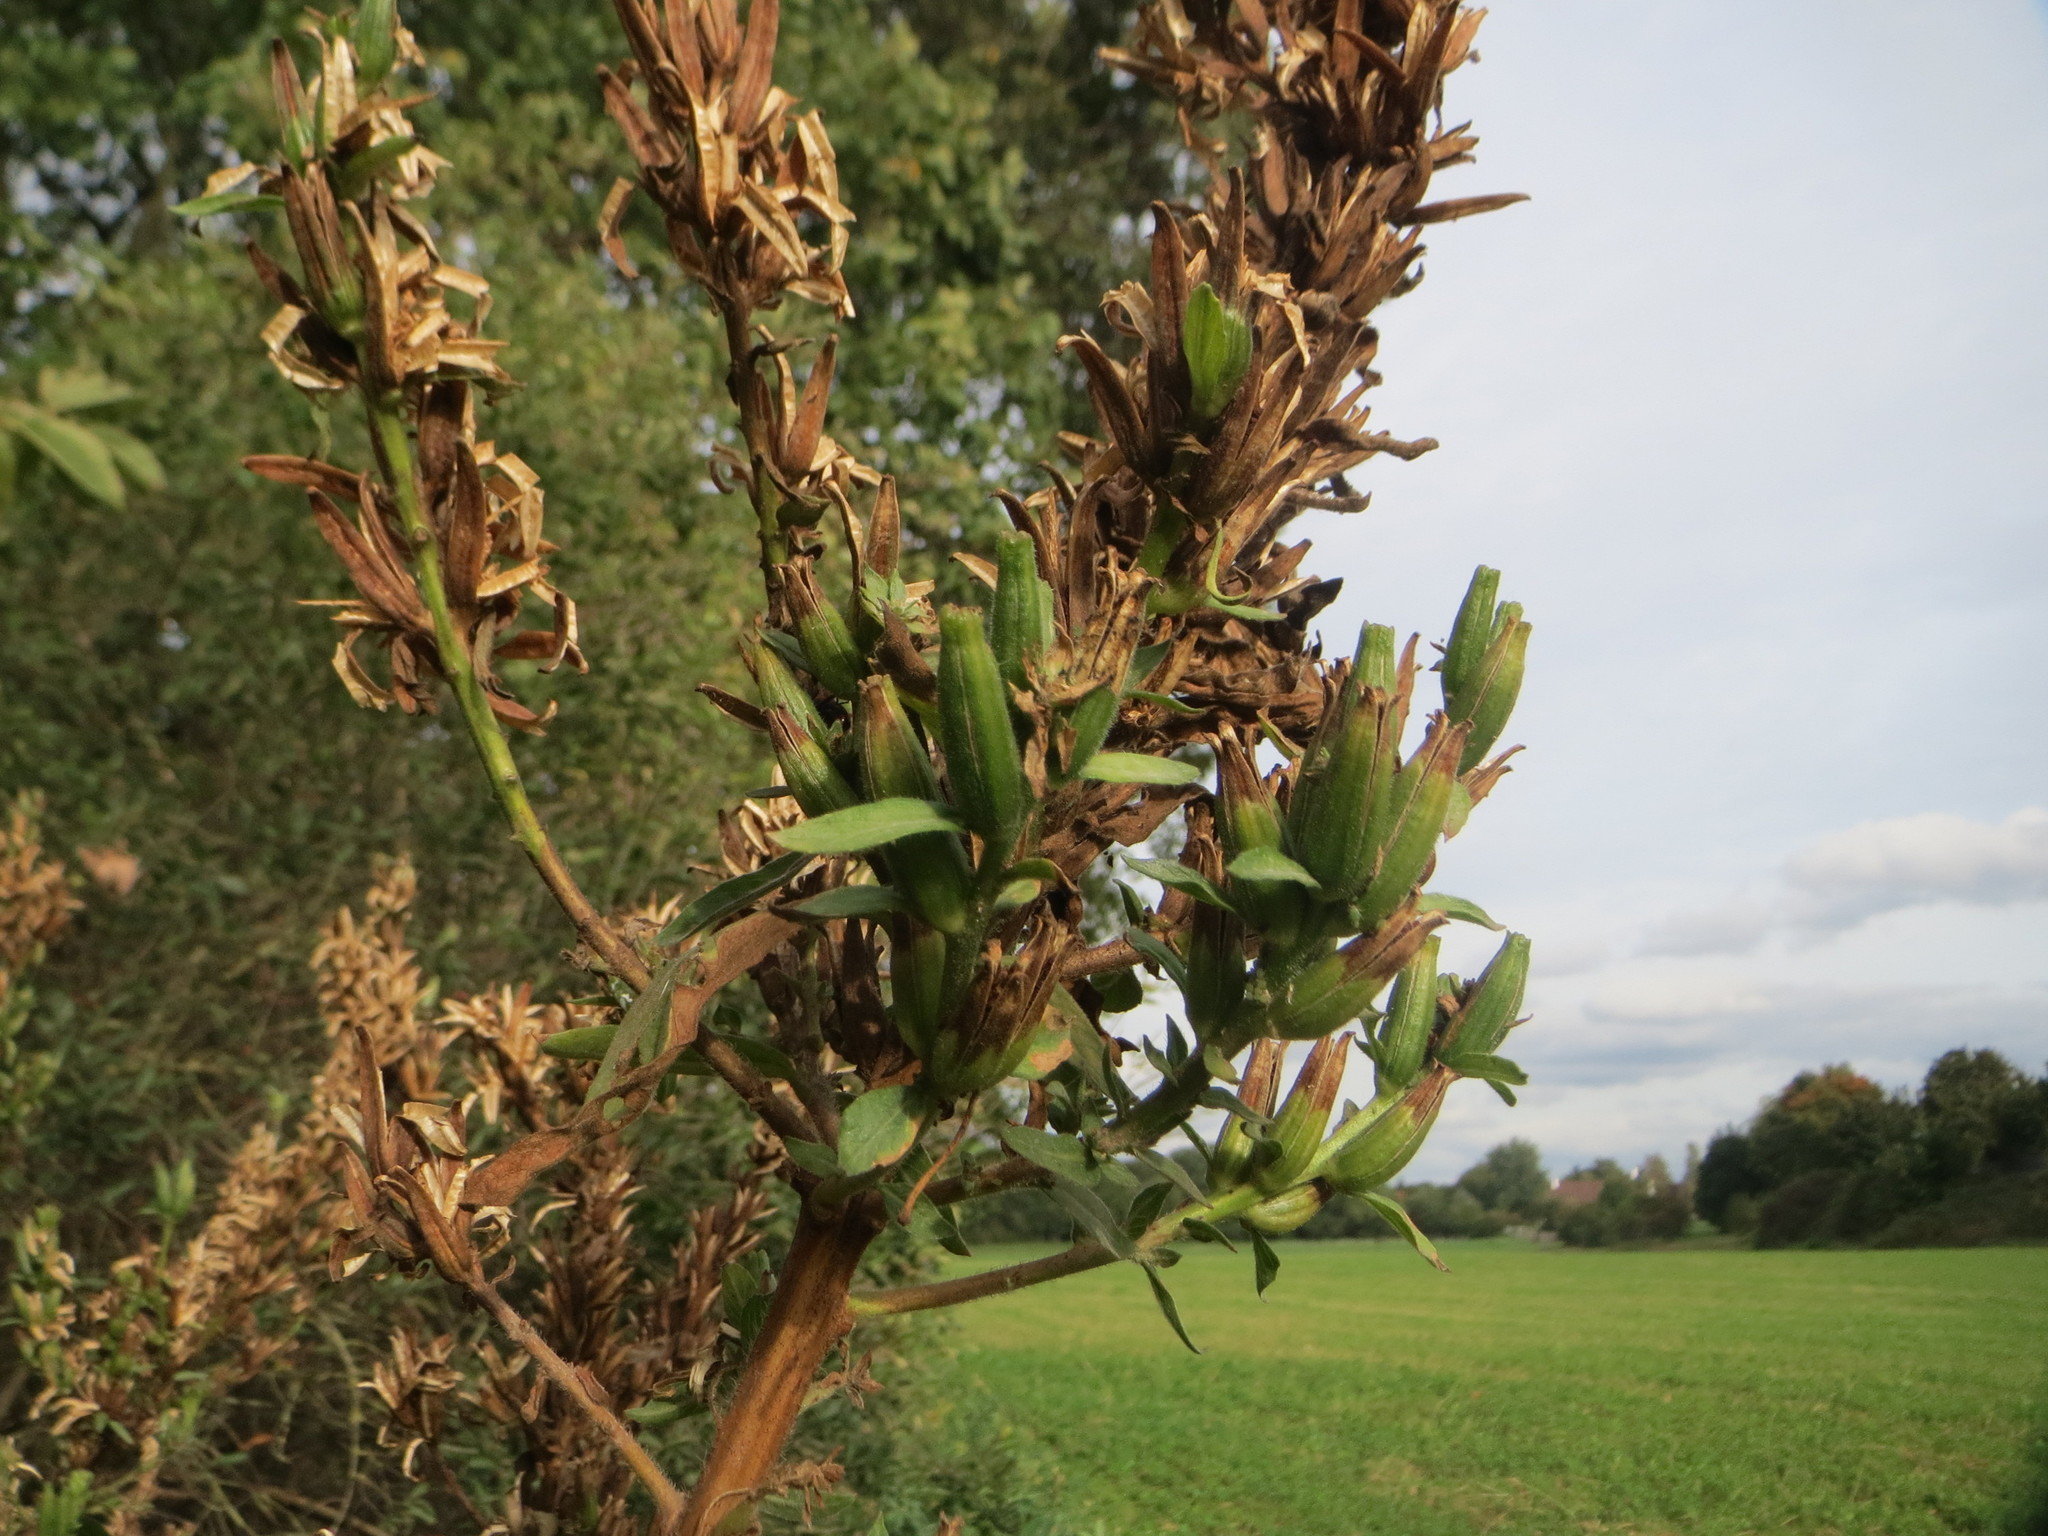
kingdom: Plantae
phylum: Tracheophyta
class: Magnoliopsida
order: Myrtales
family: Onagraceae
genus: Oenothera
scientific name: Oenothera biennis
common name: Common evening-primrose
